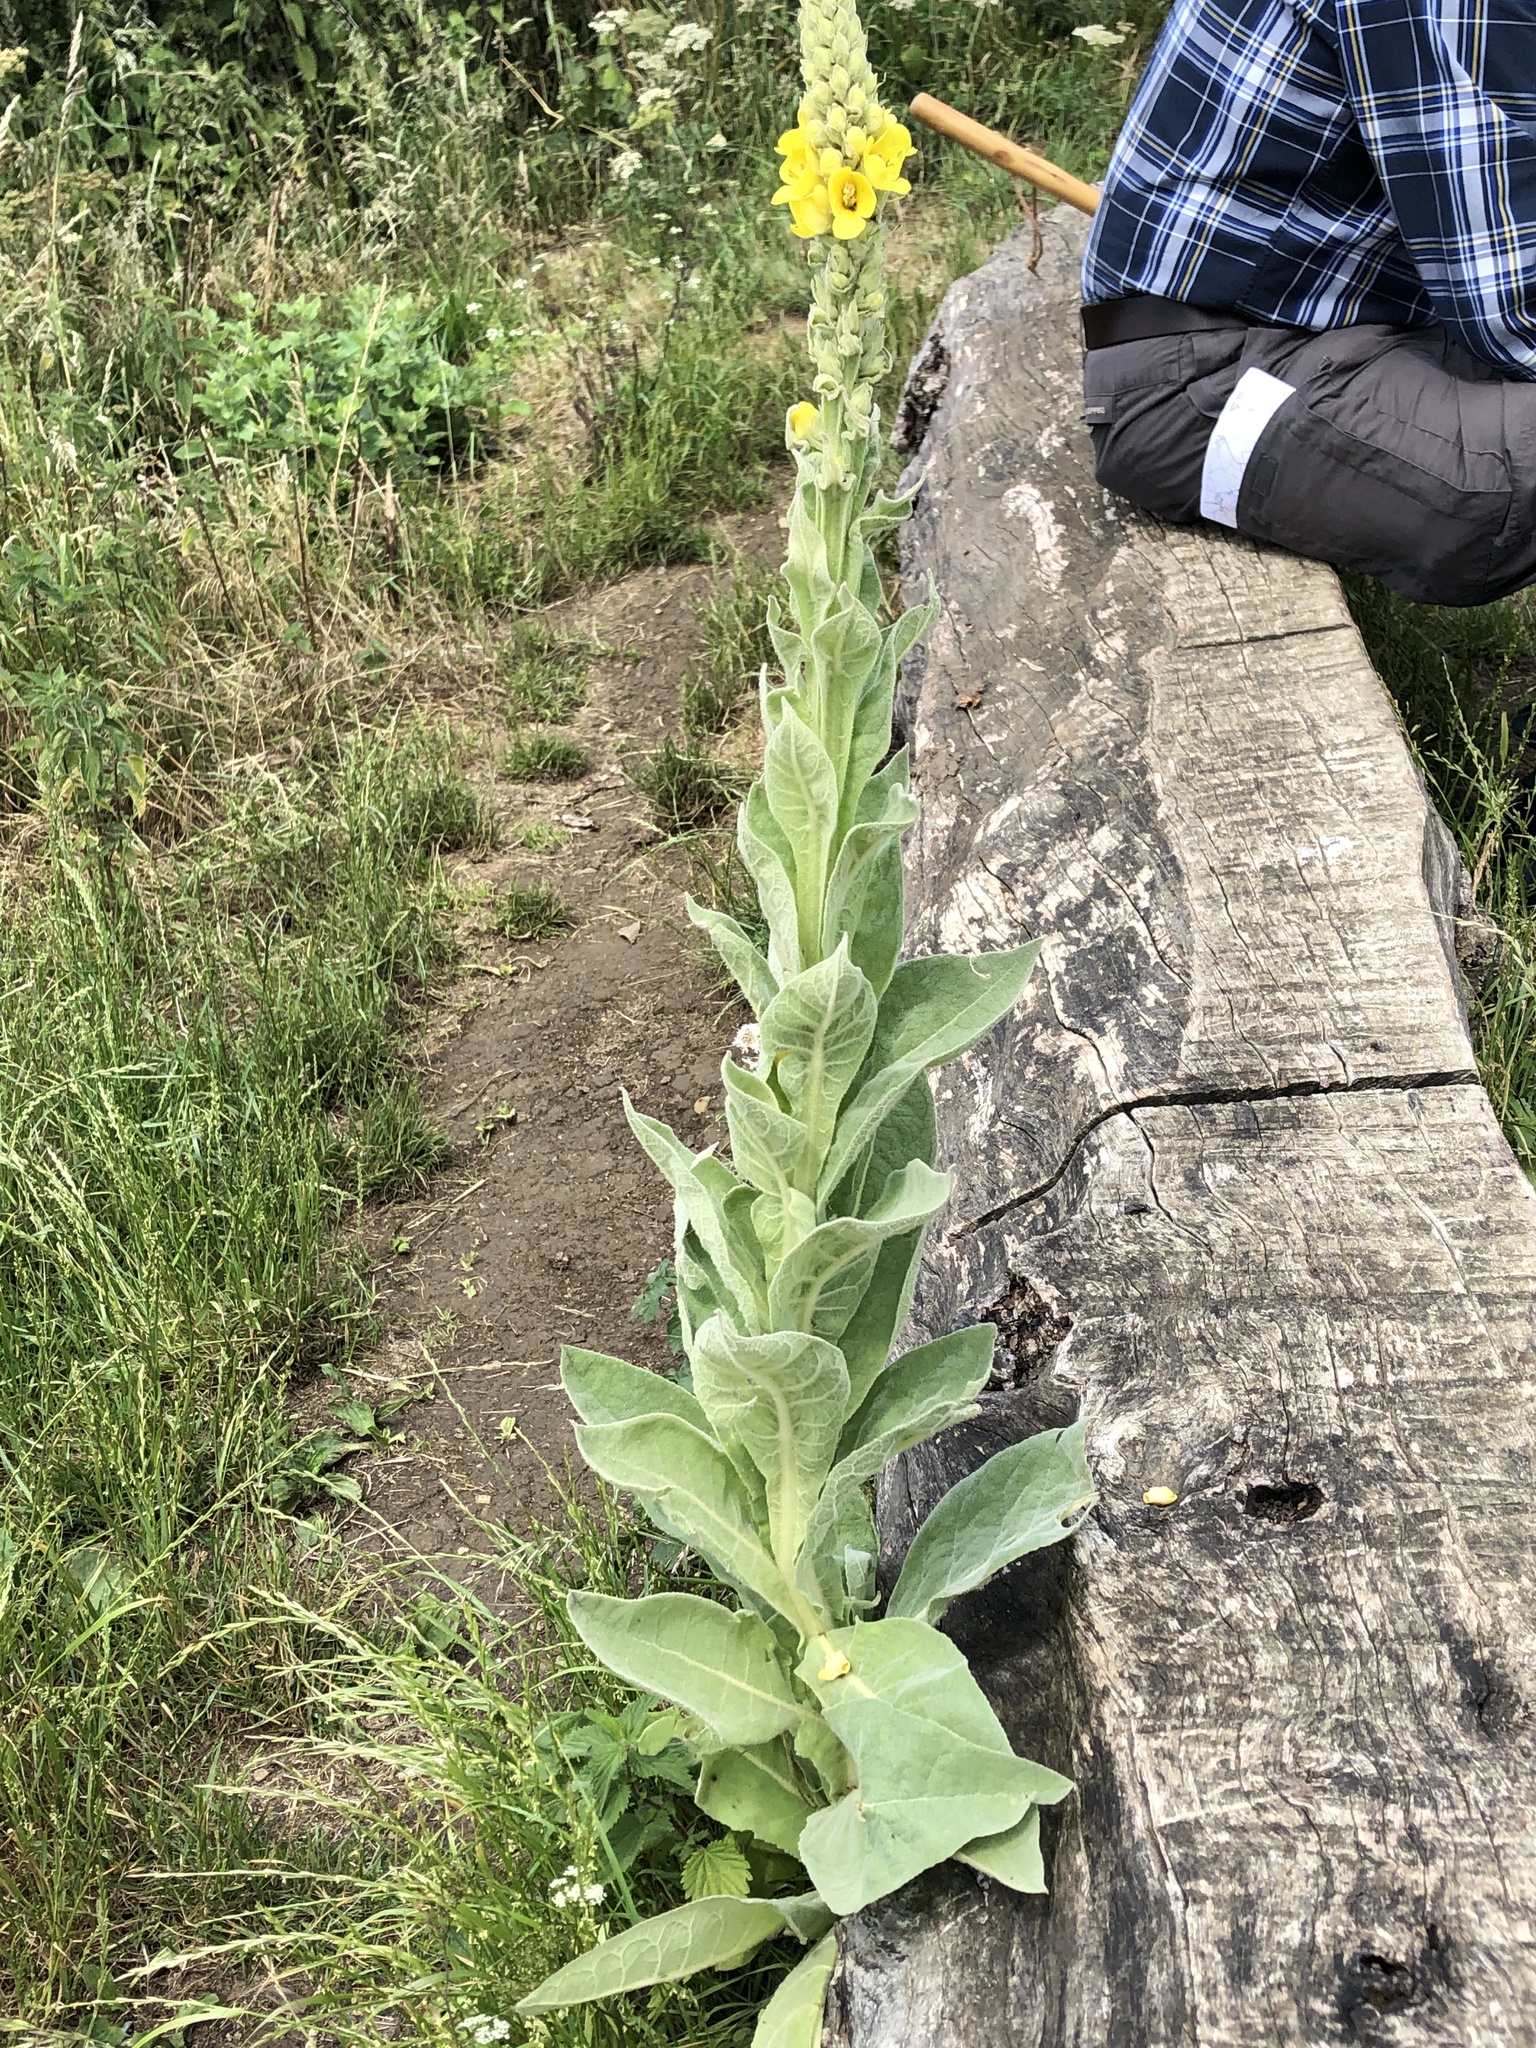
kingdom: Plantae
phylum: Tracheophyta
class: Magnoliopsida
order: Lamiales
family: Scrophulariaceae
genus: Verbascum
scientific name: Verbascum thapsus
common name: Common mullein
